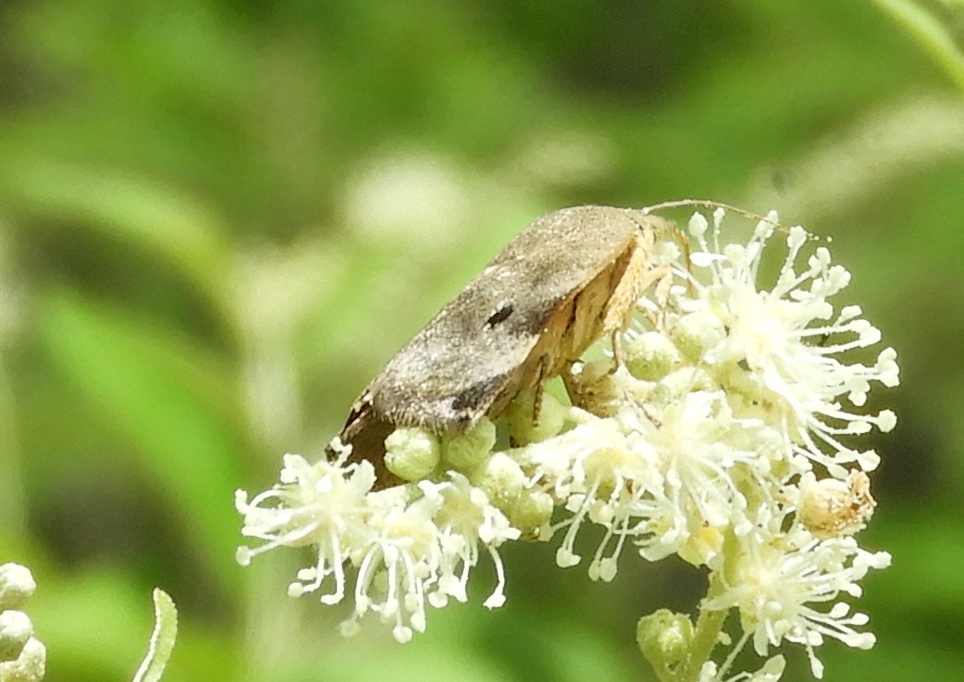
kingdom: Animalia
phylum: Arthropoda
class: Insecta
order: Lepidoptera
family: Hyblaeidae
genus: Hyblaea
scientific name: Hyblaea
